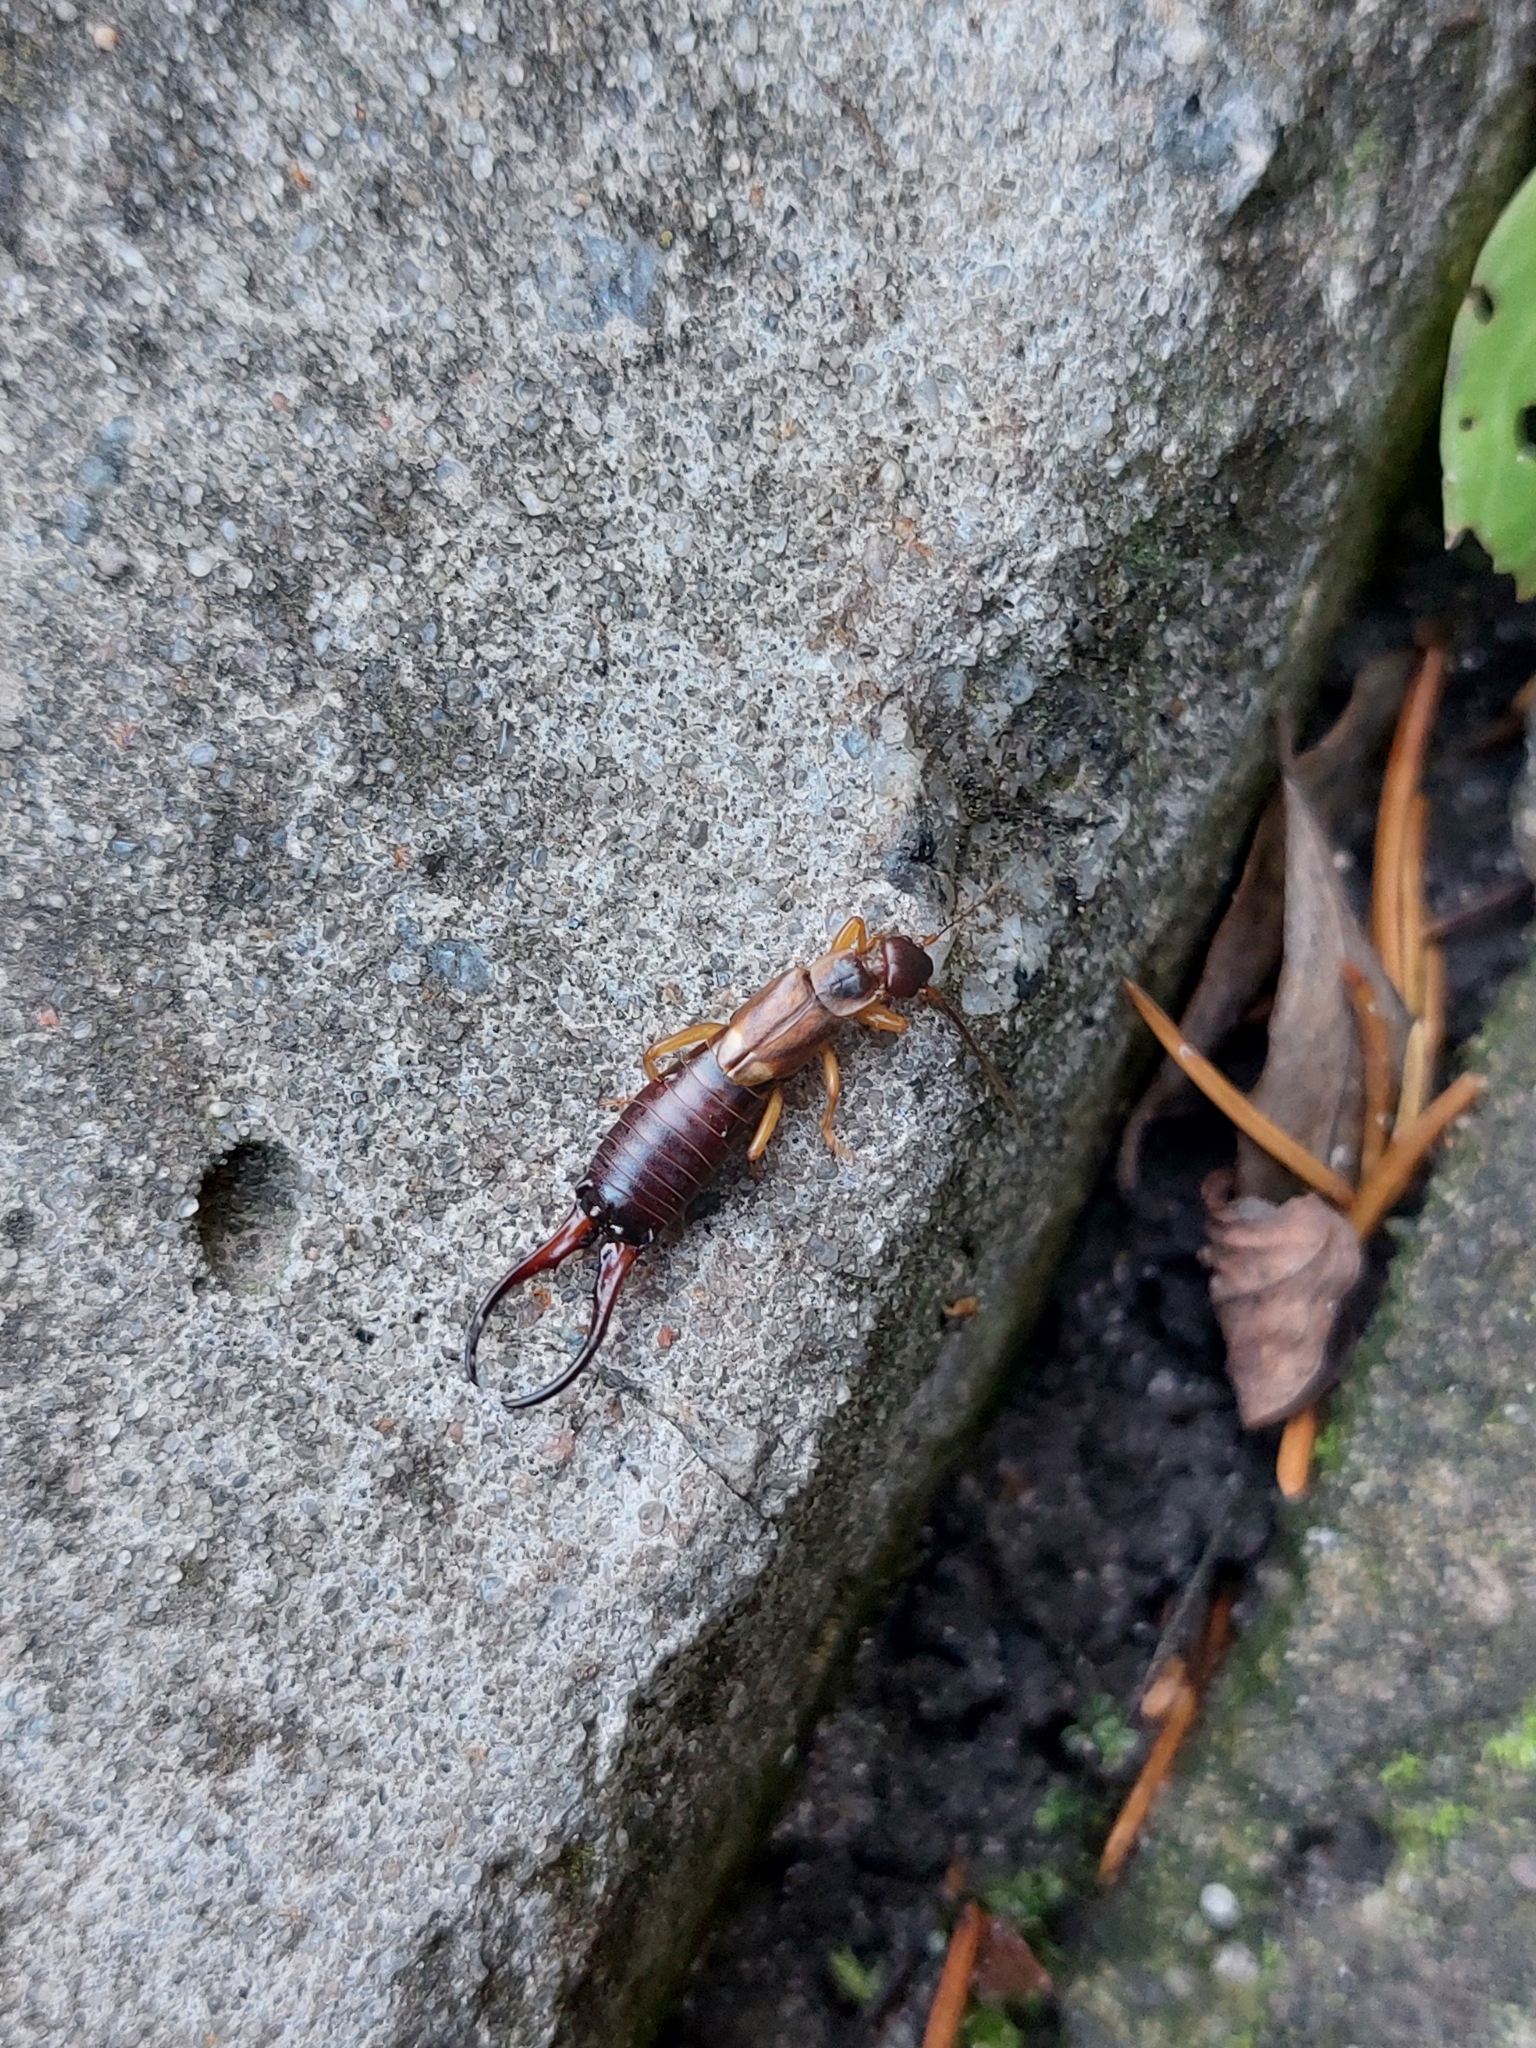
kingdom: Animalia
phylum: Arthropoda
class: Insecta
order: Dermaptera
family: Forficulidae
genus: Forficula
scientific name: Forficula auricularia
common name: European earwig
